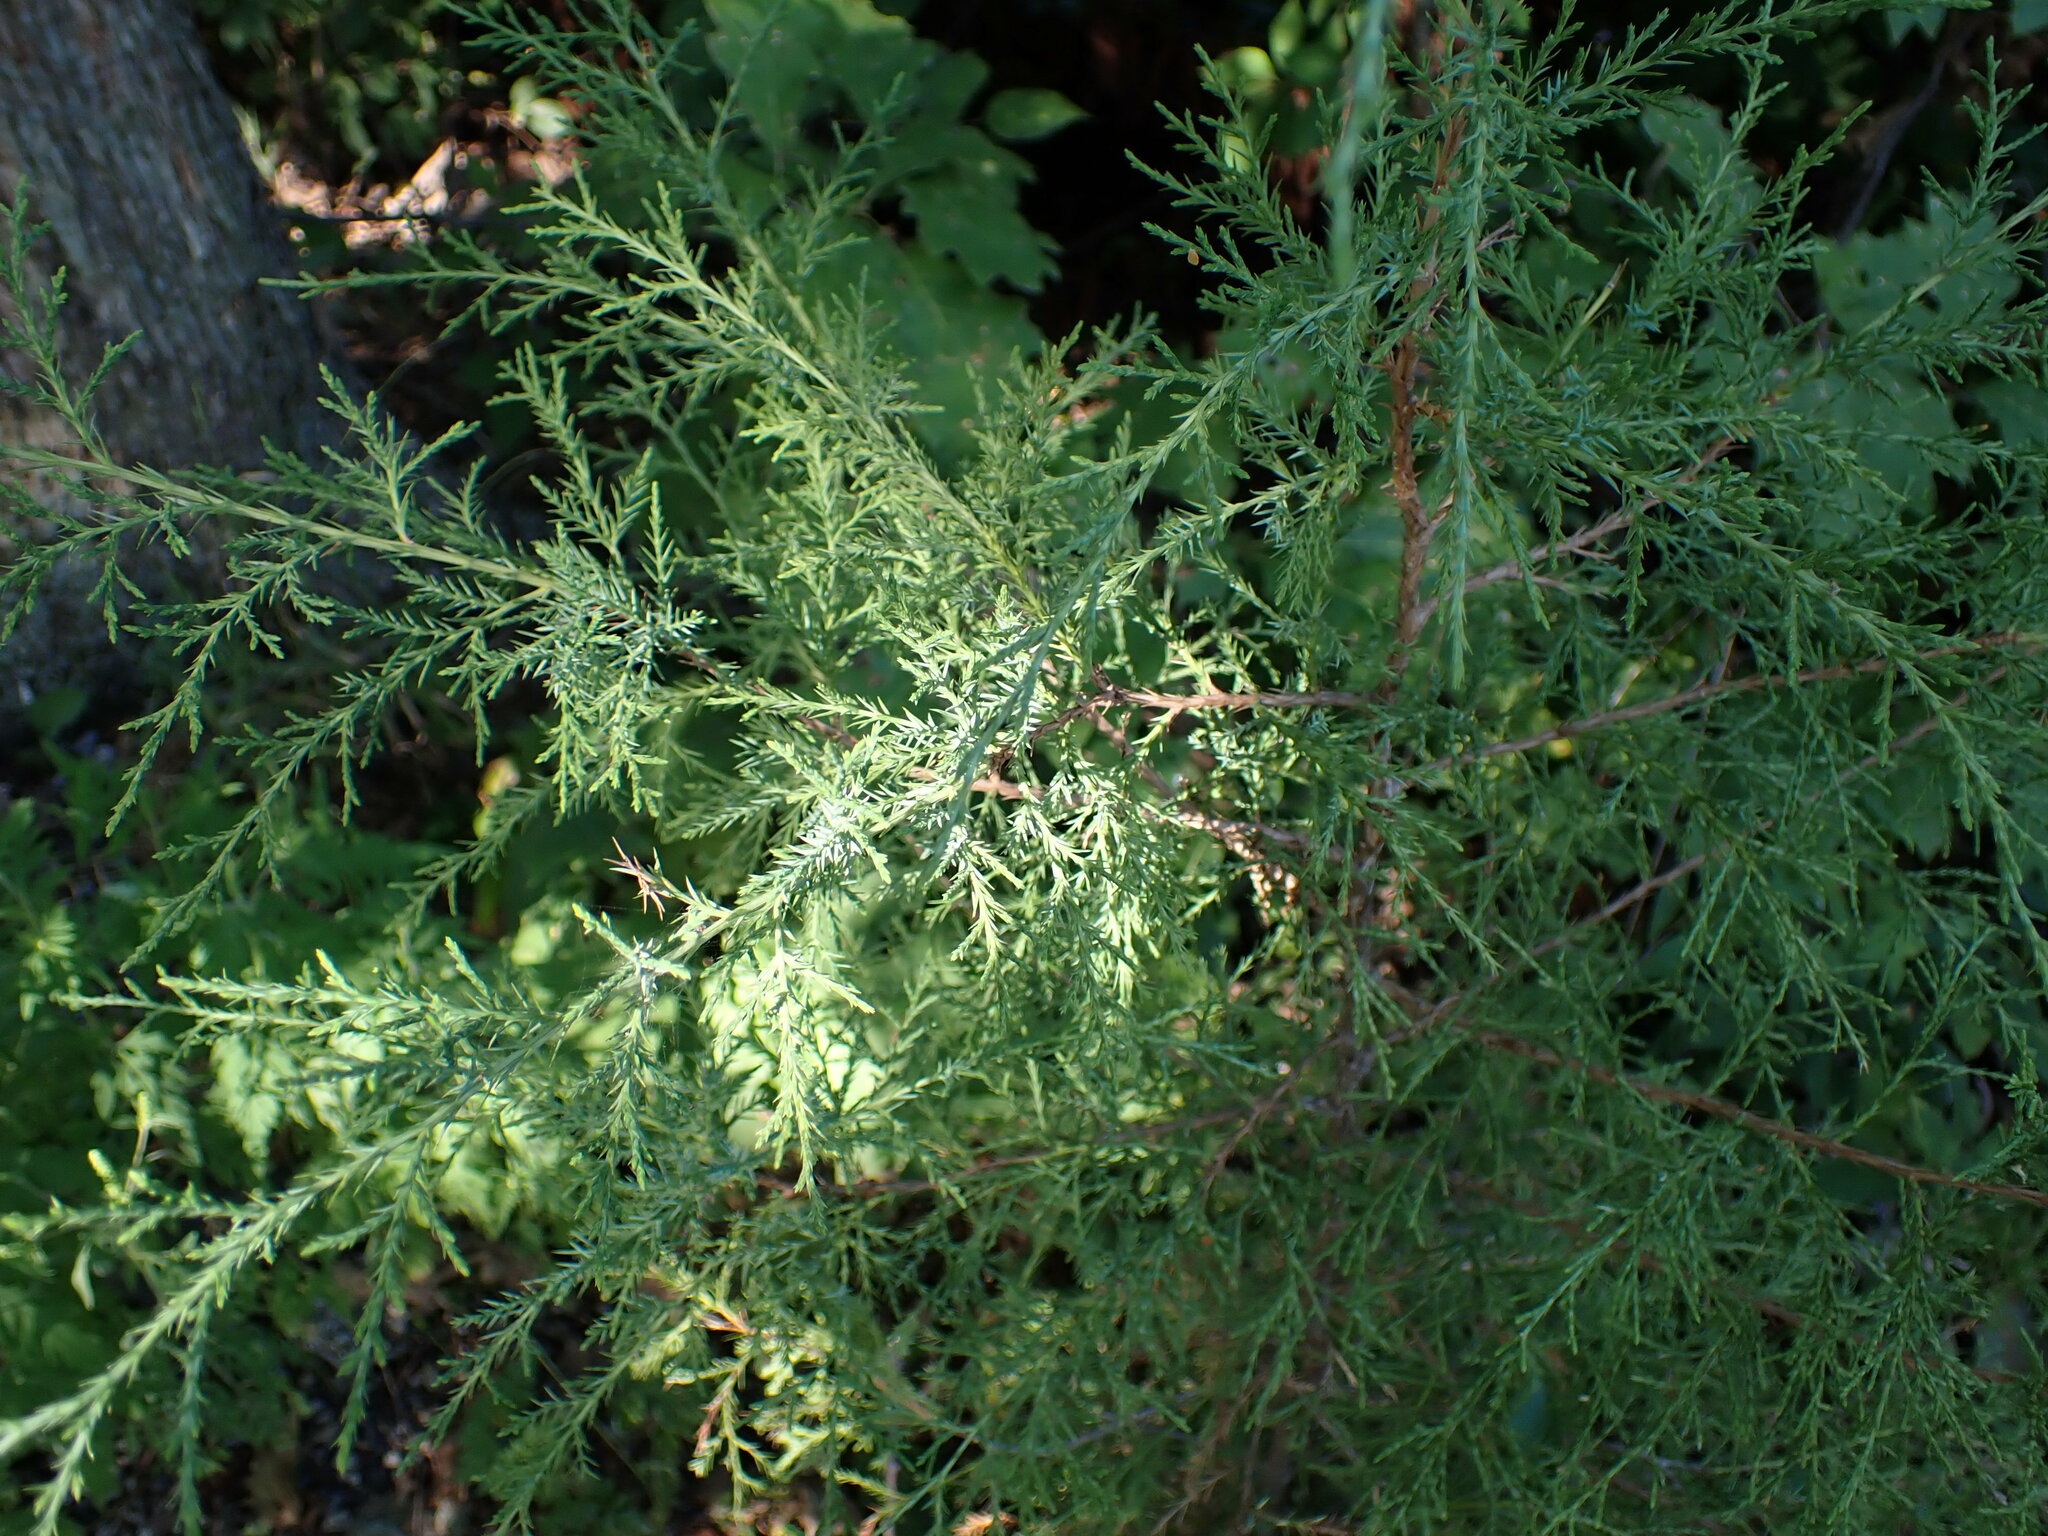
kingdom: Plantae
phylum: Tracheophyta
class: Pinopsida
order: Pinales
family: Cupressaceae
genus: Juniperus
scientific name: Juniperus virginiana
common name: Red juniper
